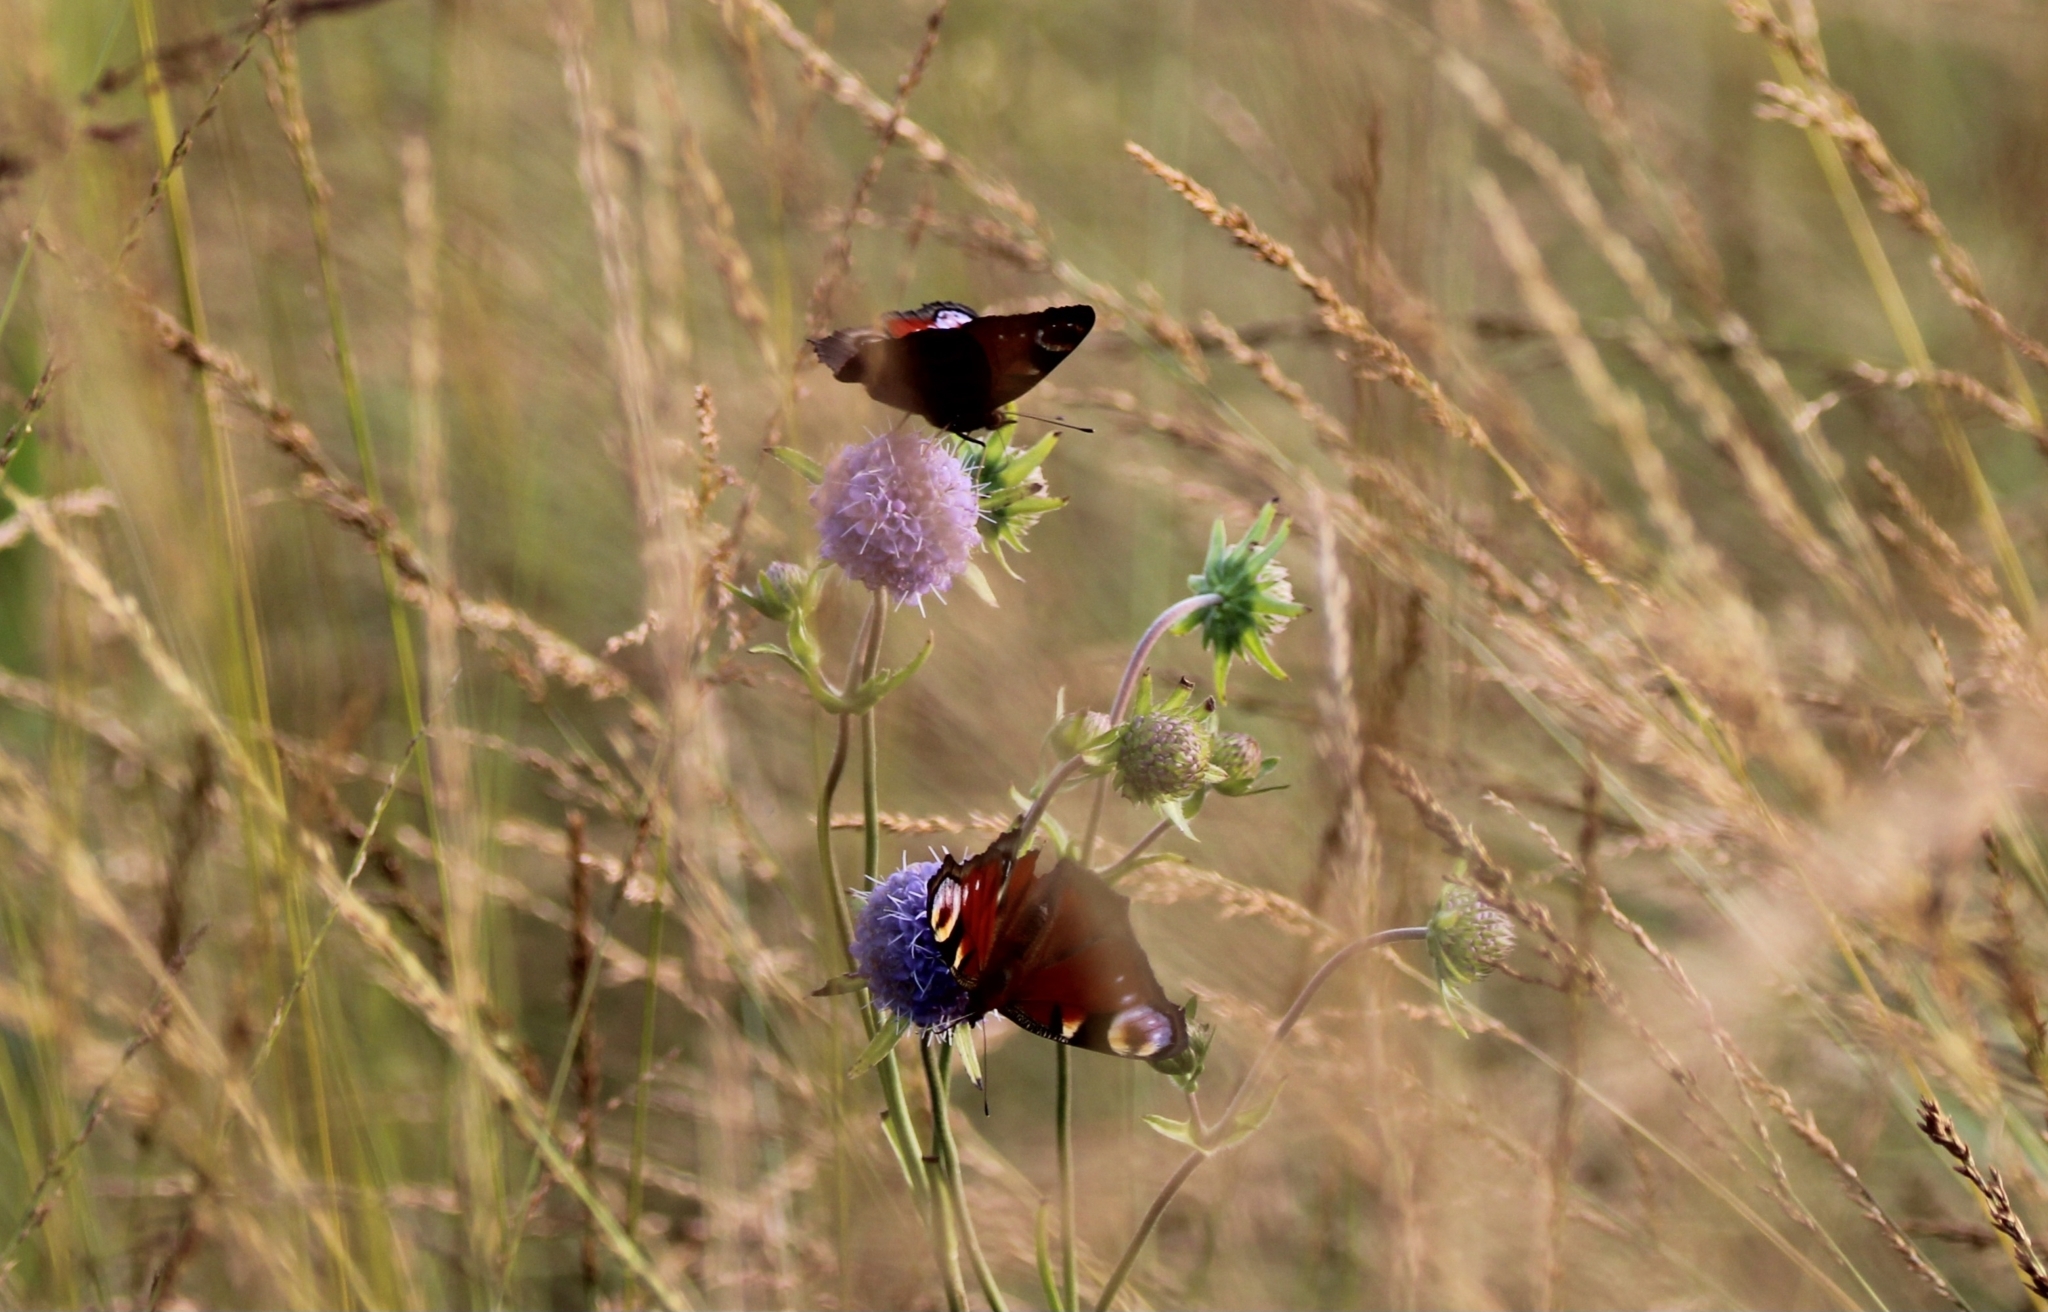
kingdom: Animalia
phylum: Arthropoda
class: Insecta
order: Lepidoptera
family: Nymphalidae
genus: Aglais
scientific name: Aglais io
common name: Peacock
